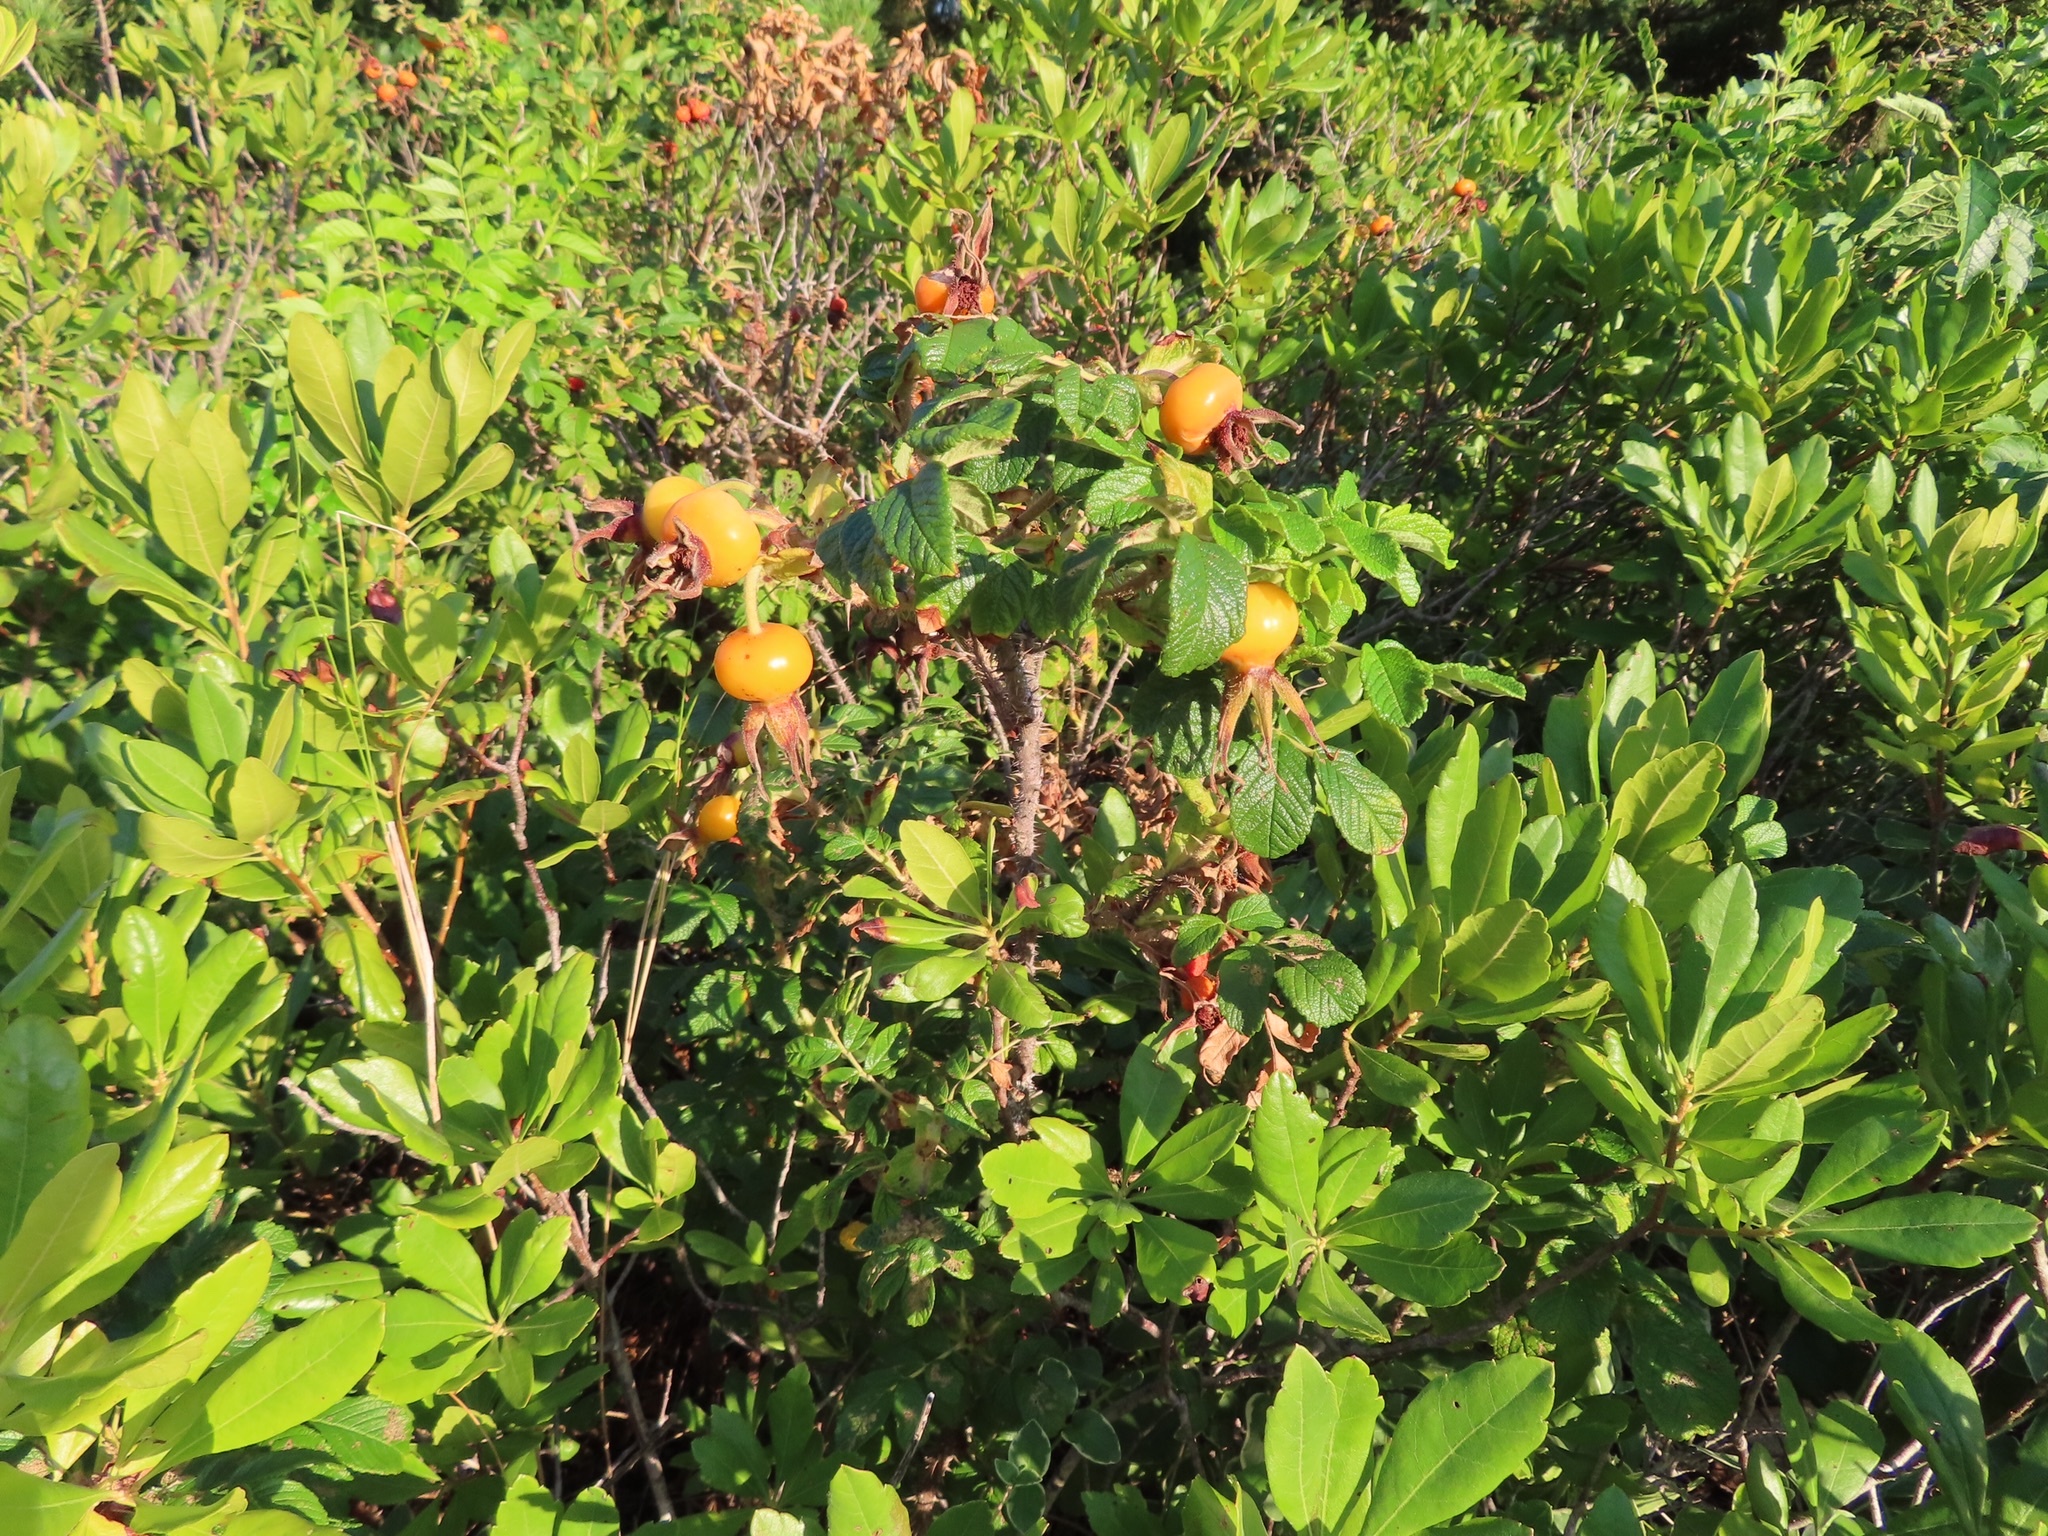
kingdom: Plantae
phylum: Tracheophyta
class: Magnoliopsida
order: Rosales
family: Rosaceae
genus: Rosa
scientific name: Rosa rugosa
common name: Japanese rose
